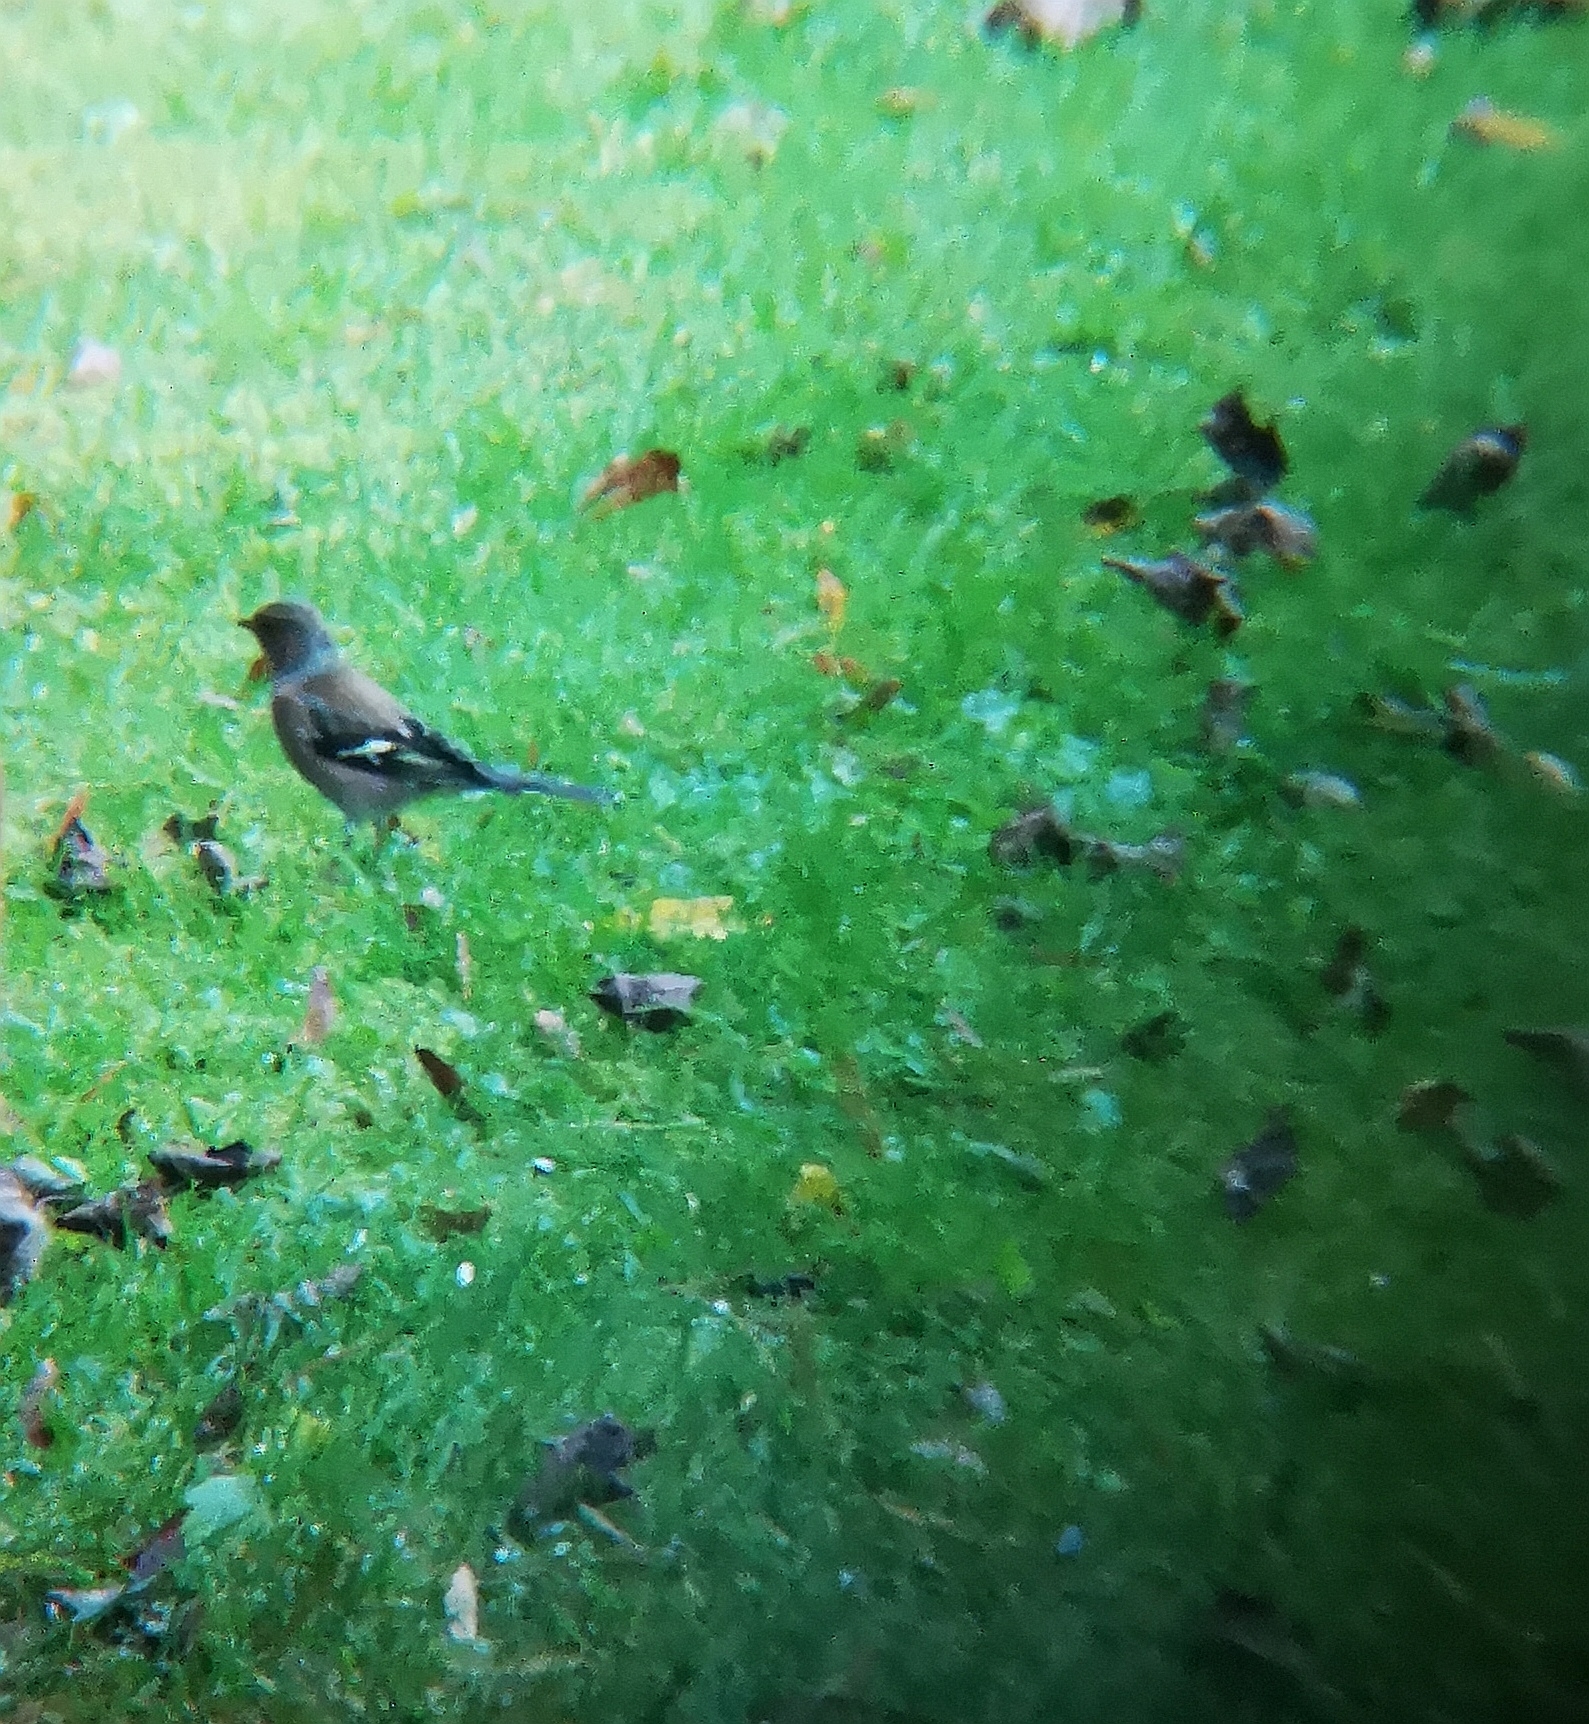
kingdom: Animalia
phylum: Chordata
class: Aves
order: Passeriformes
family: Fringillidae
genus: Fringilla
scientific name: Fringilla coelebs
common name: Common chaffinch
